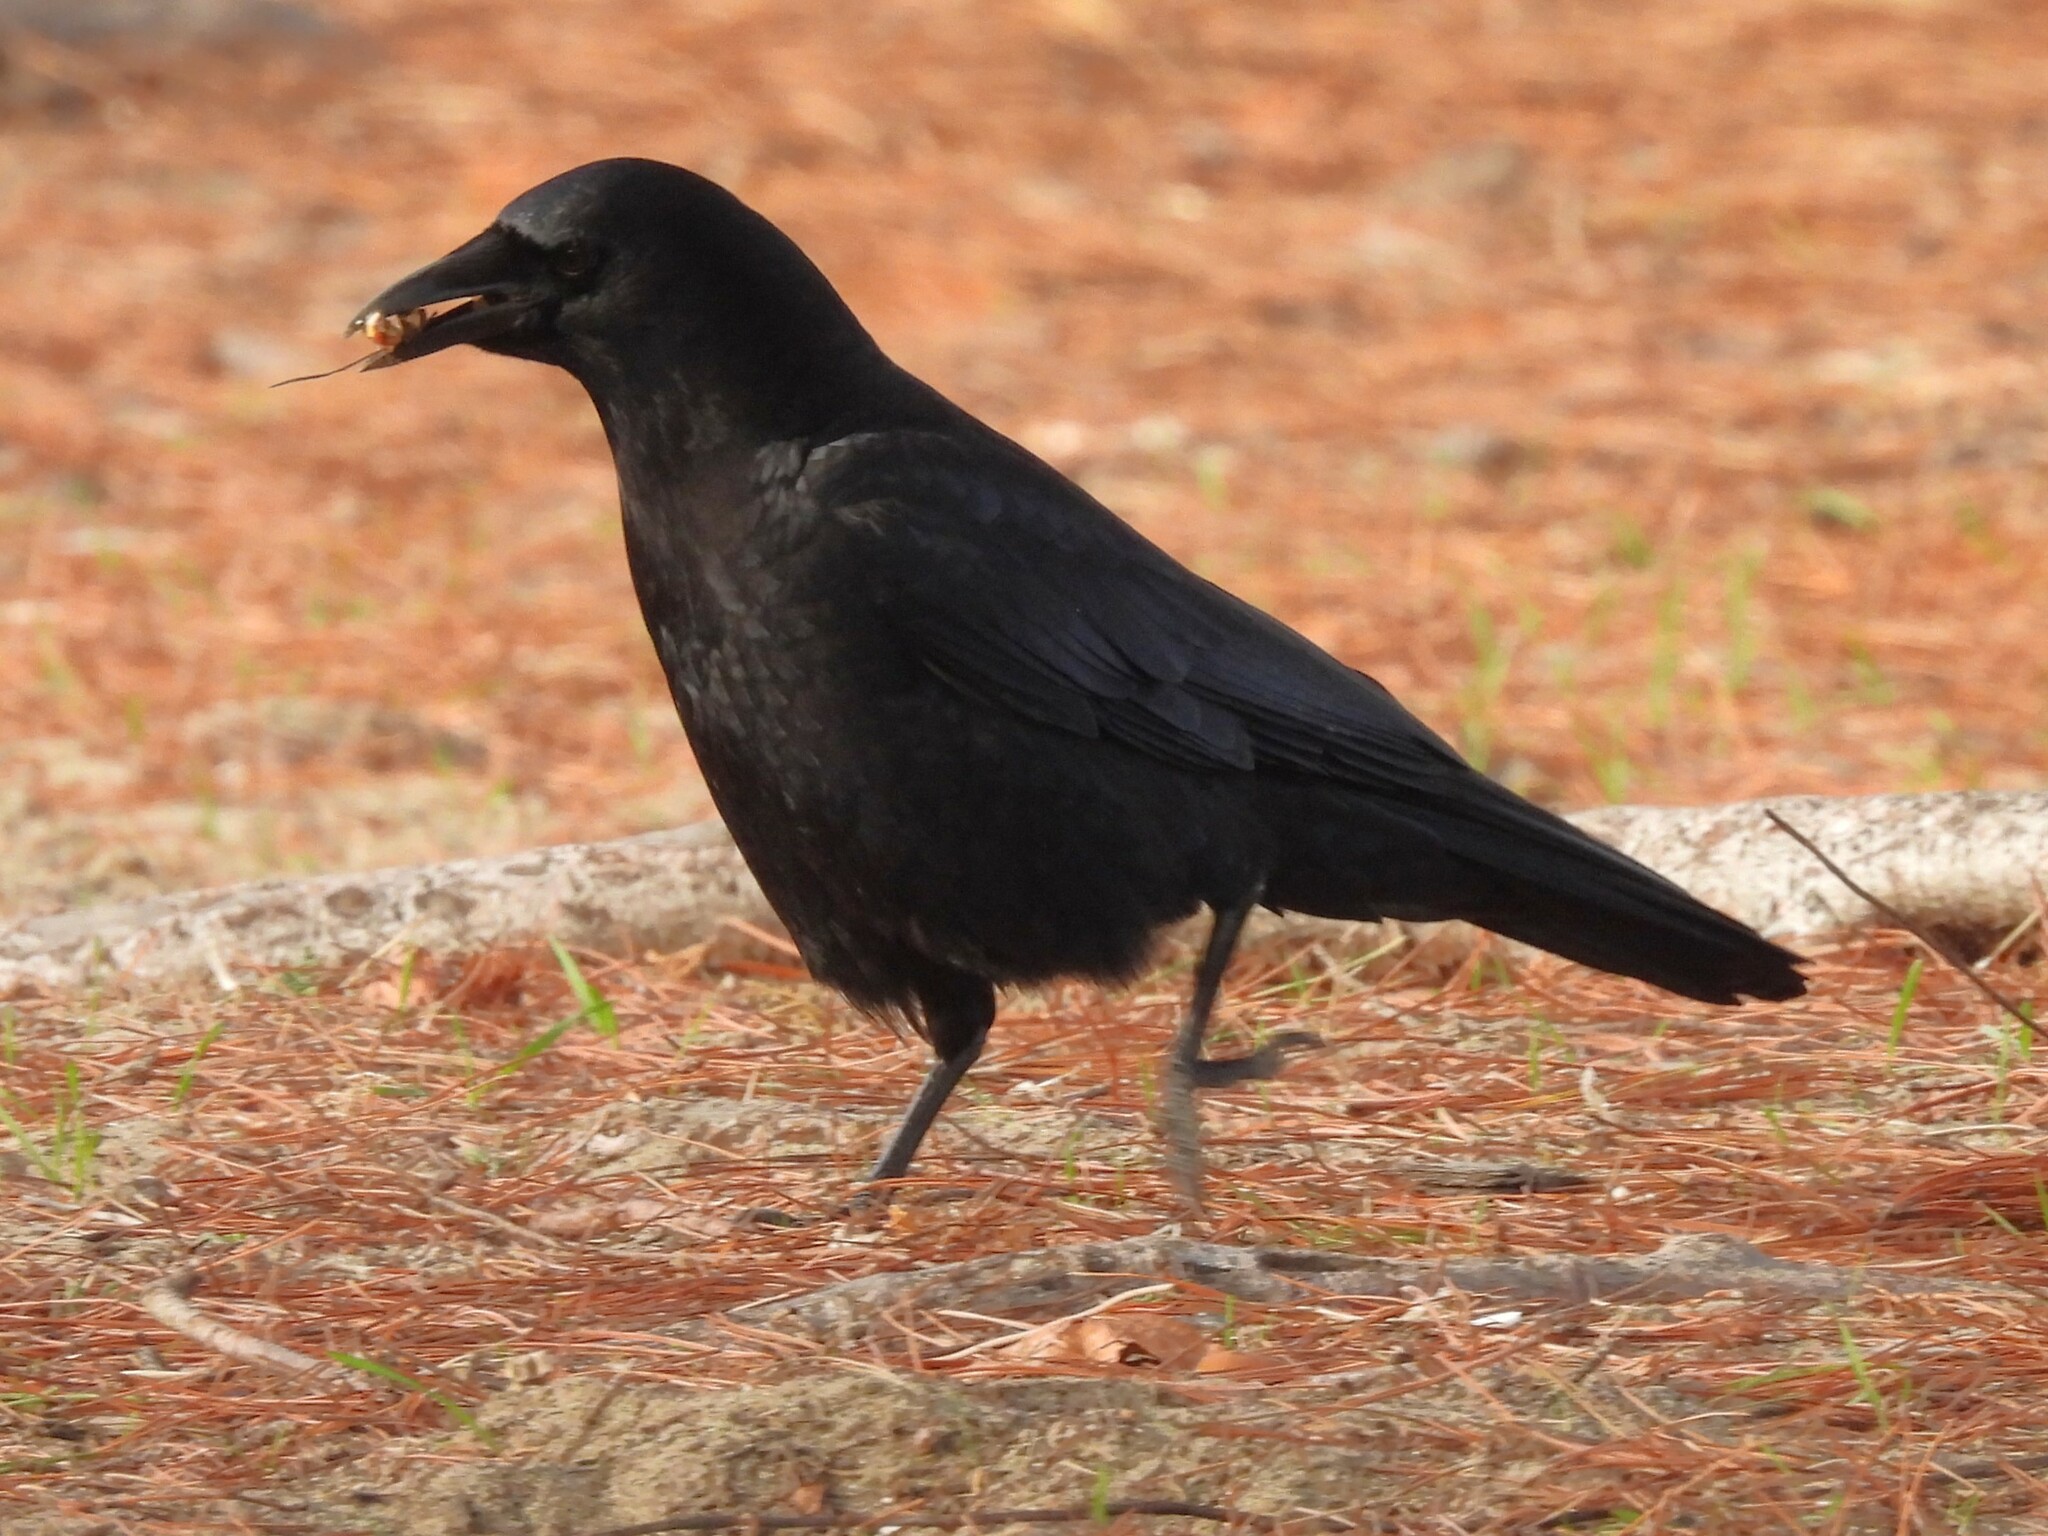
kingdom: Animalia
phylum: Chordata
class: Aves
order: Passeriformes
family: Corvidae
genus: Corvus
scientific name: Corvus brachyrhynchos
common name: American crow
